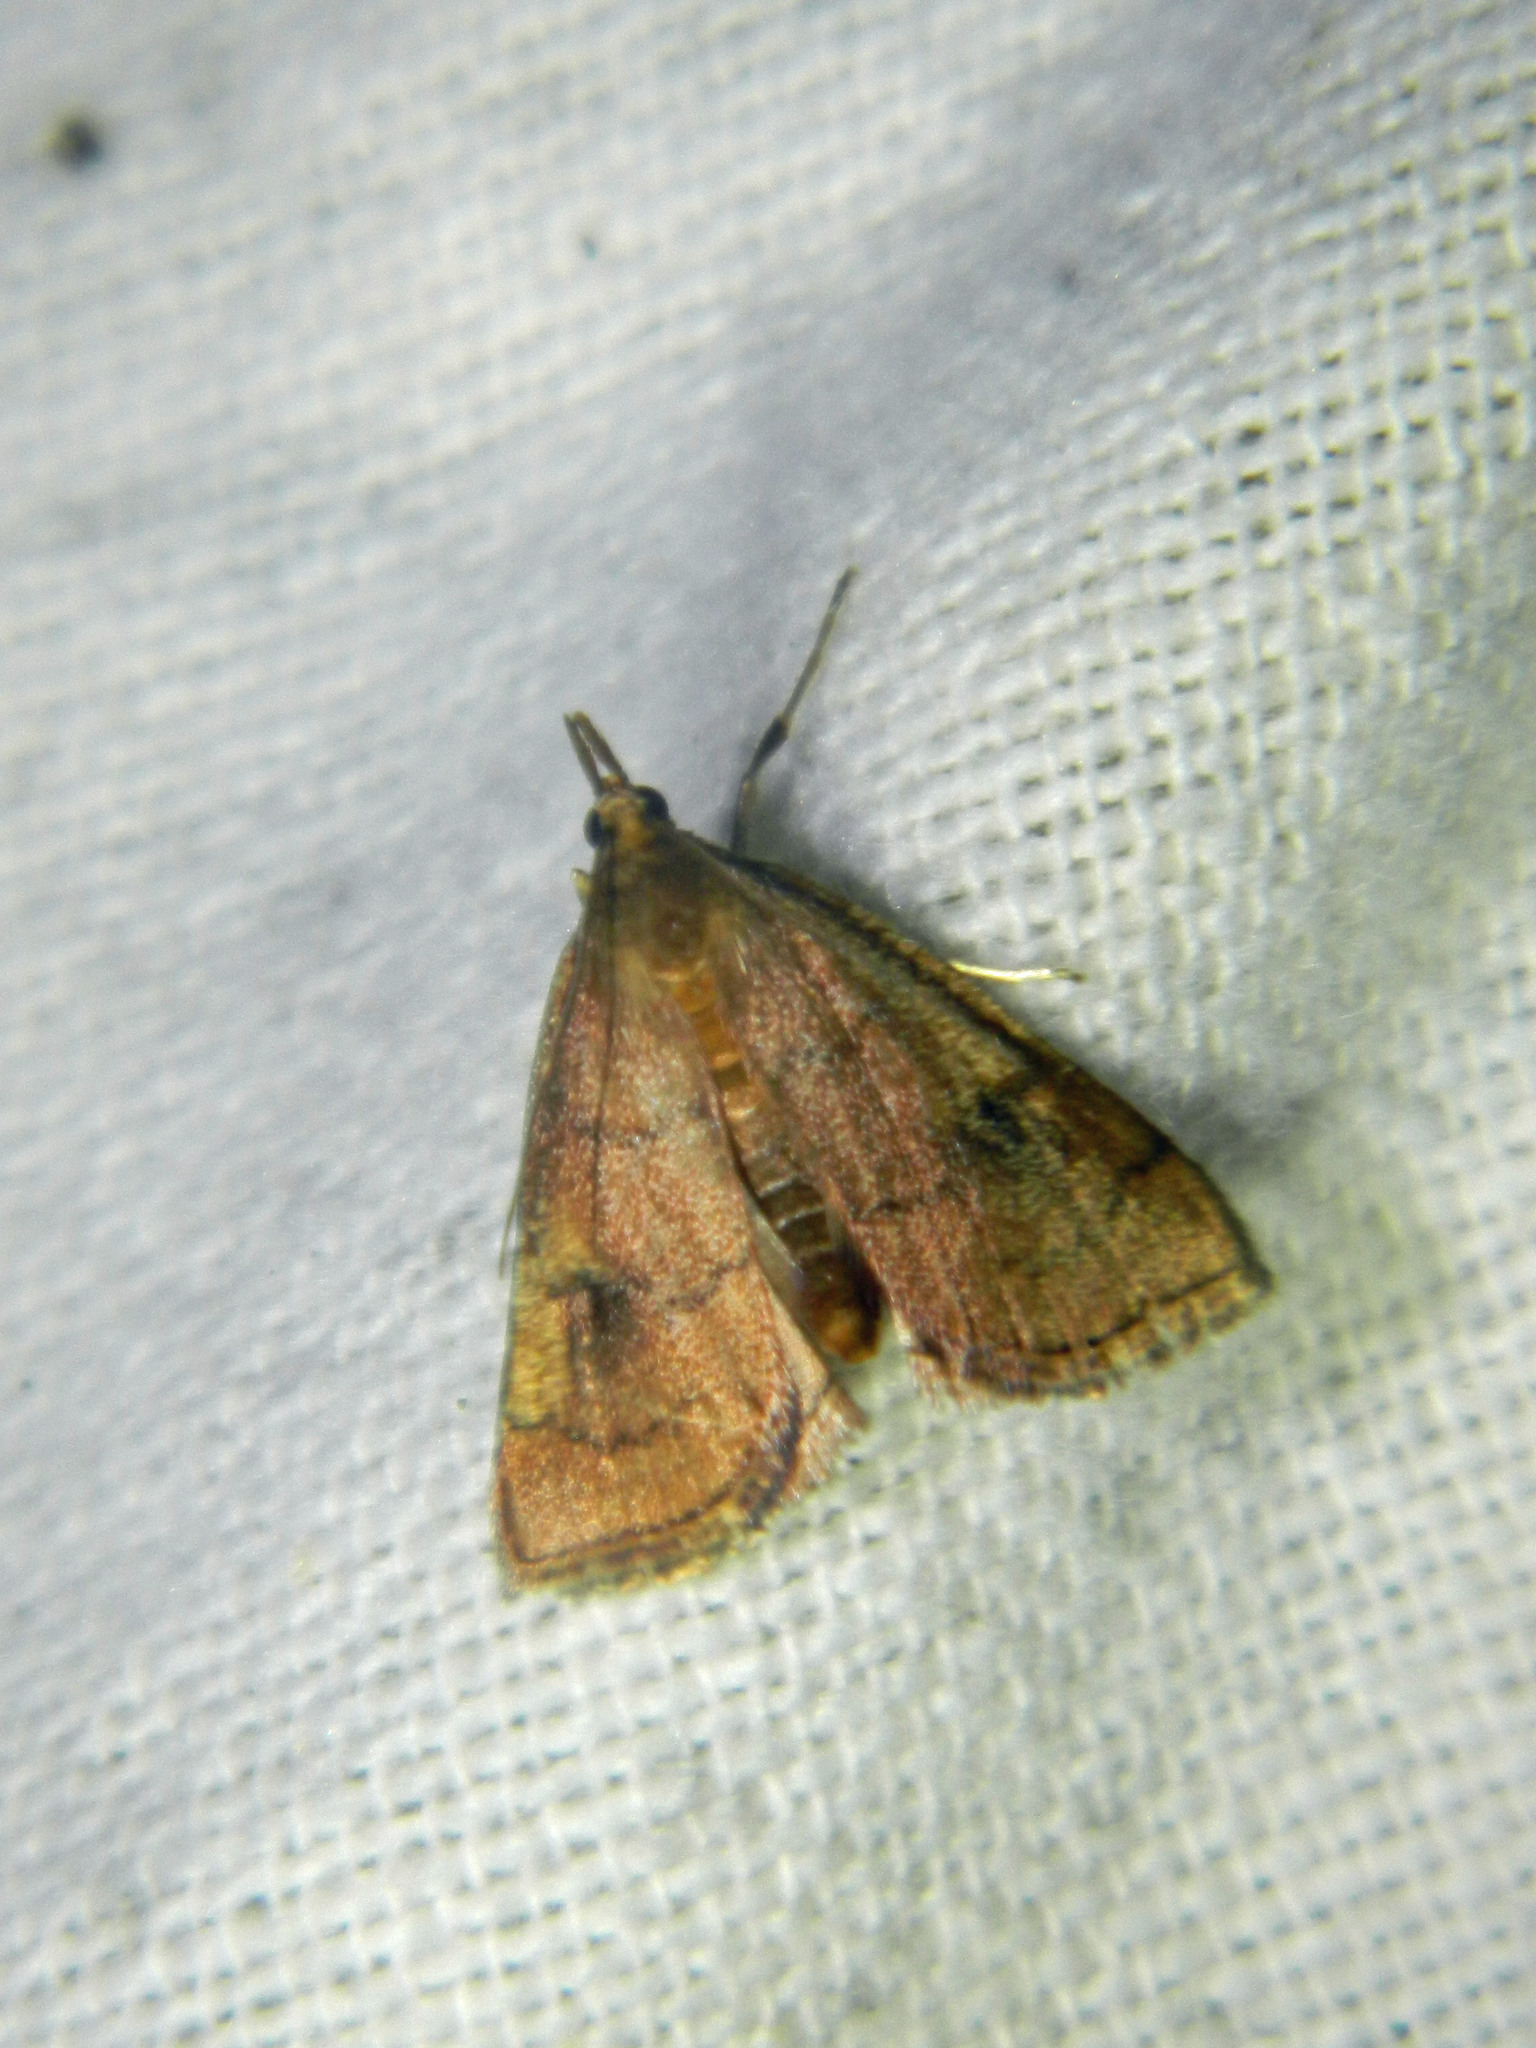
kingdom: Animalia
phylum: Arthropoda
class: Insecta
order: Lepidoptera
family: Crambidae
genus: Fumibotys
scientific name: Fumibotys fumalis
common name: Mint root borer moth
